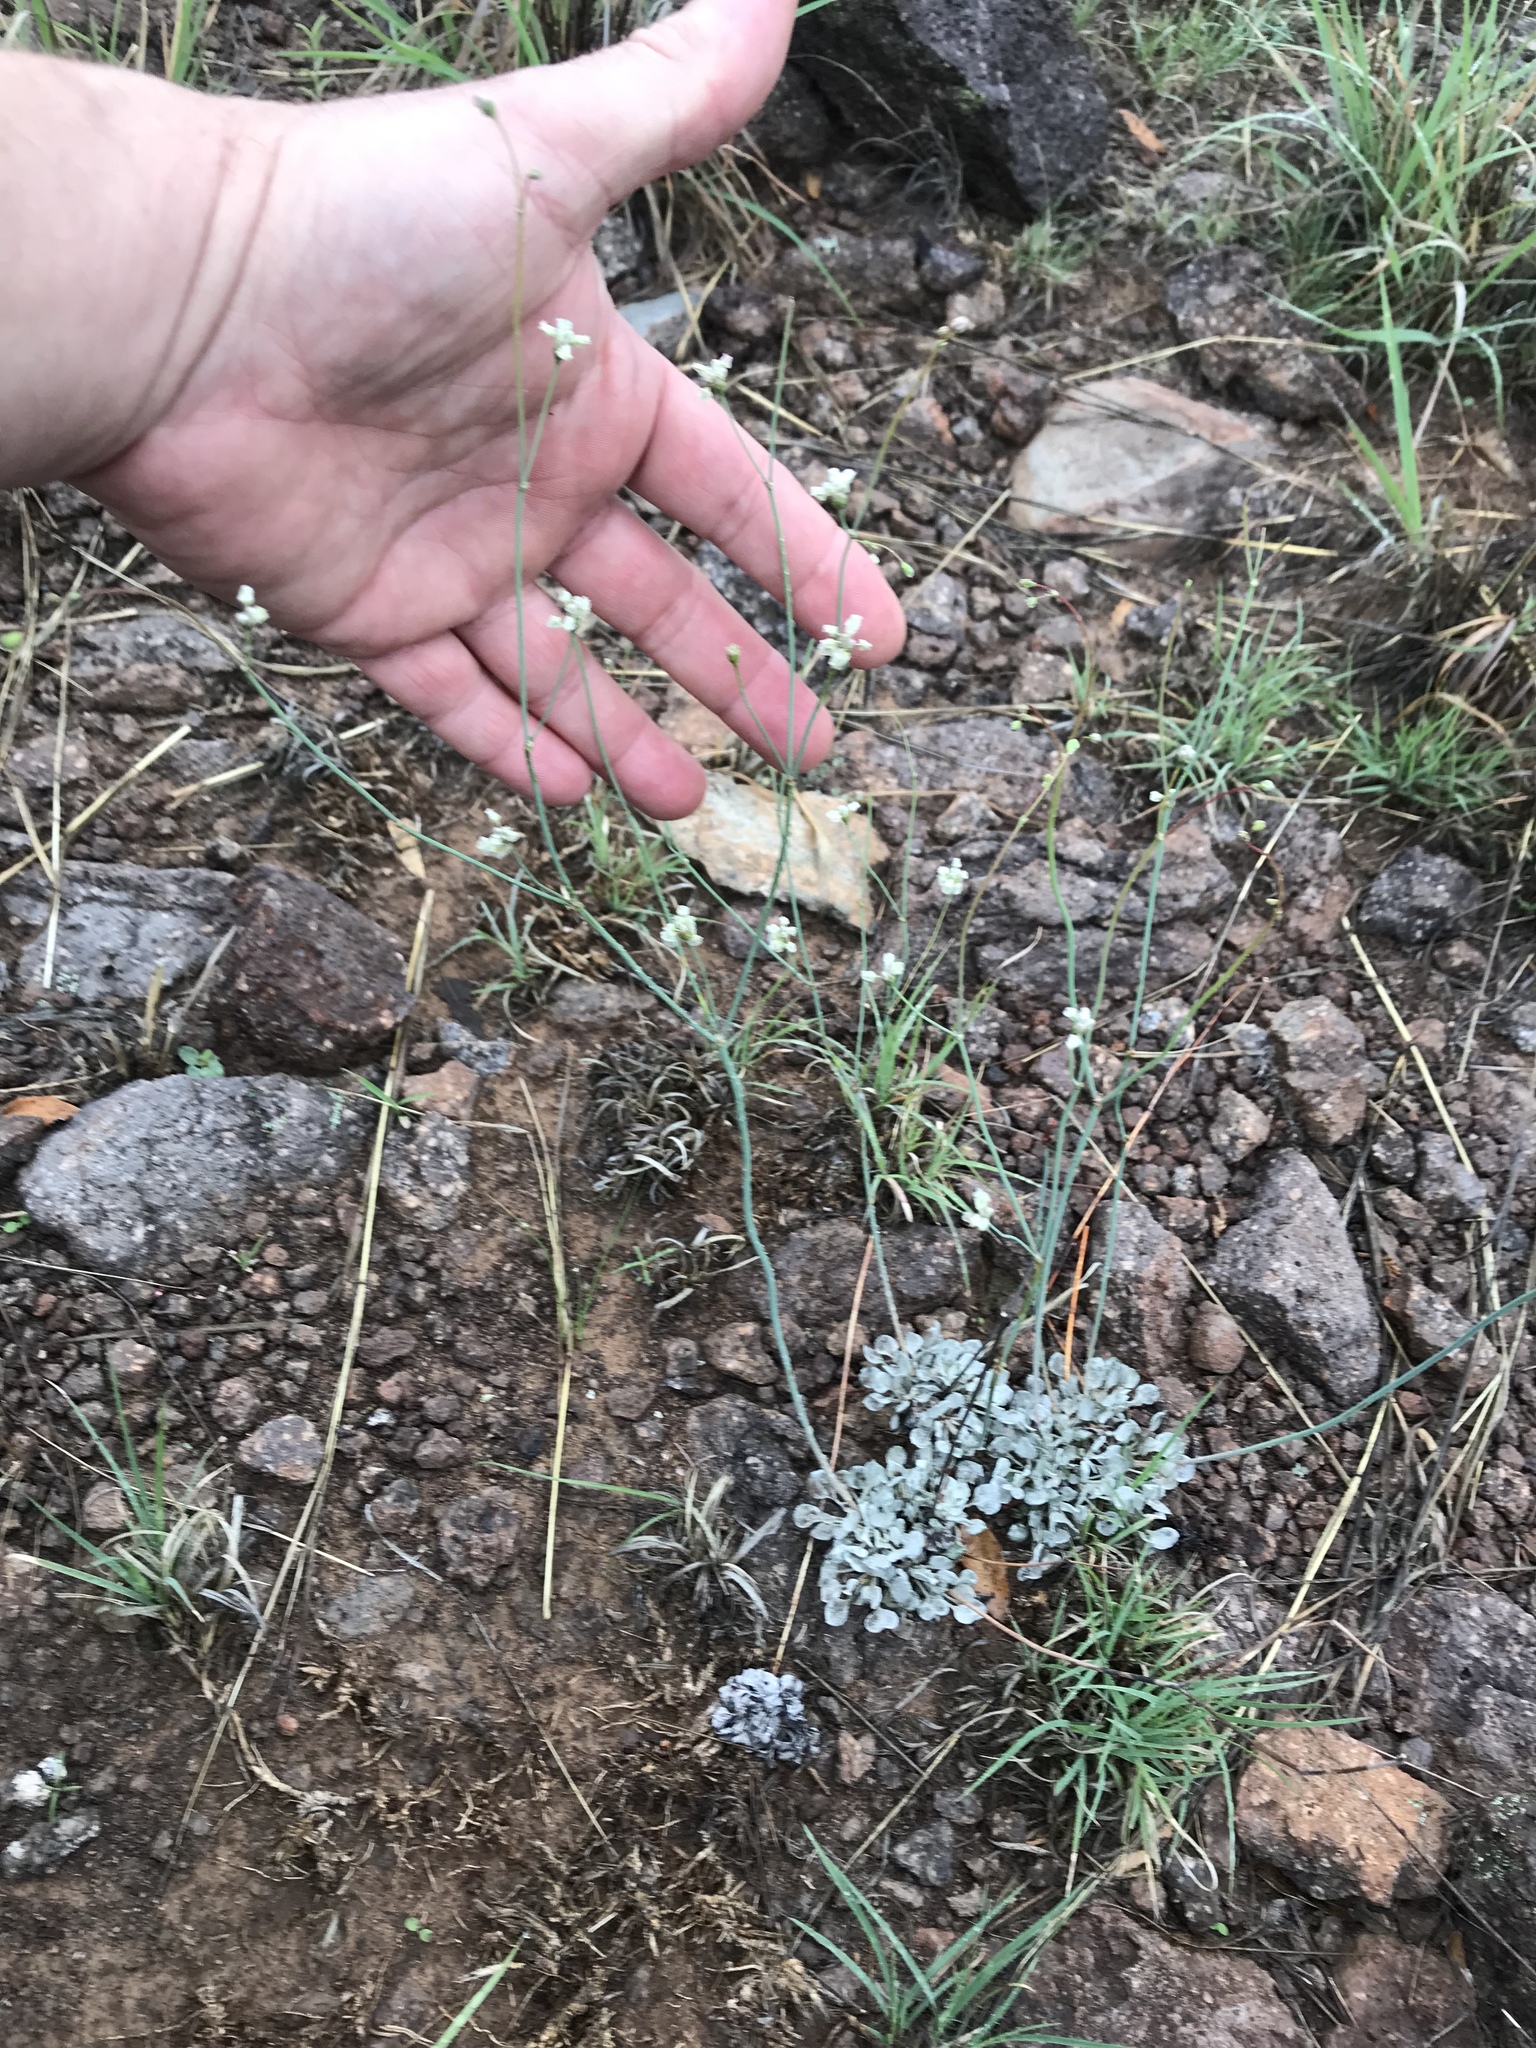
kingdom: Plantae
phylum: Tracheophyta
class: Magnoliopsida
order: Caryophyllales
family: Polygonaceae
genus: Eriogonum
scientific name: Eriogonum tenellum
